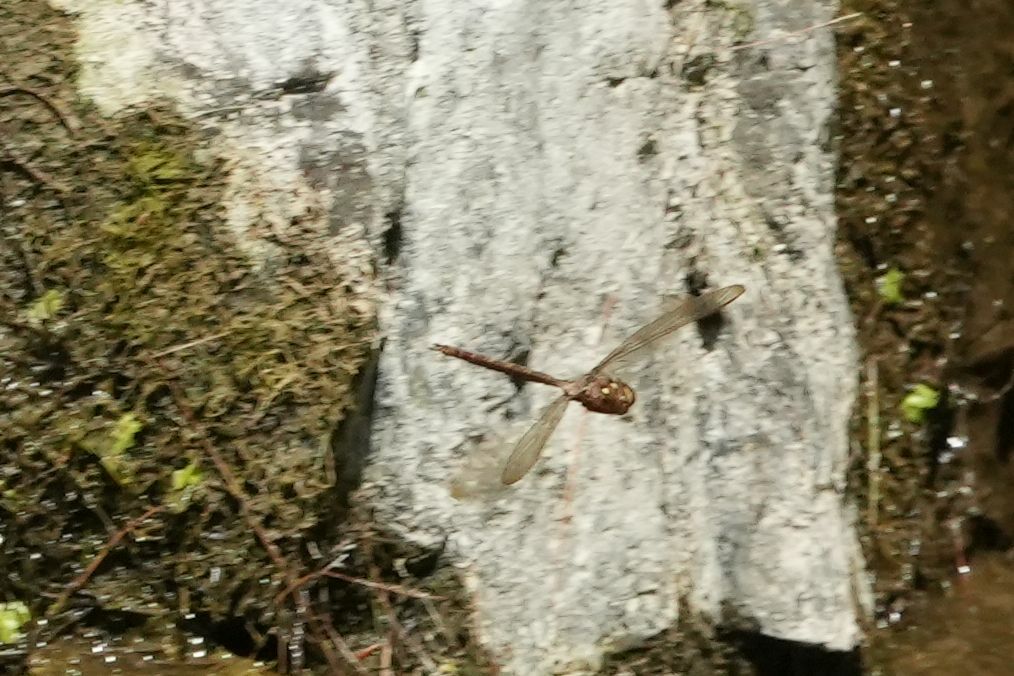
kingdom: Animalia
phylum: Arthropoda
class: Insecta
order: Odonata
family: Aeshnidae
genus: Boyeria
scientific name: Boyeria vinosa
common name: Fawn darner
